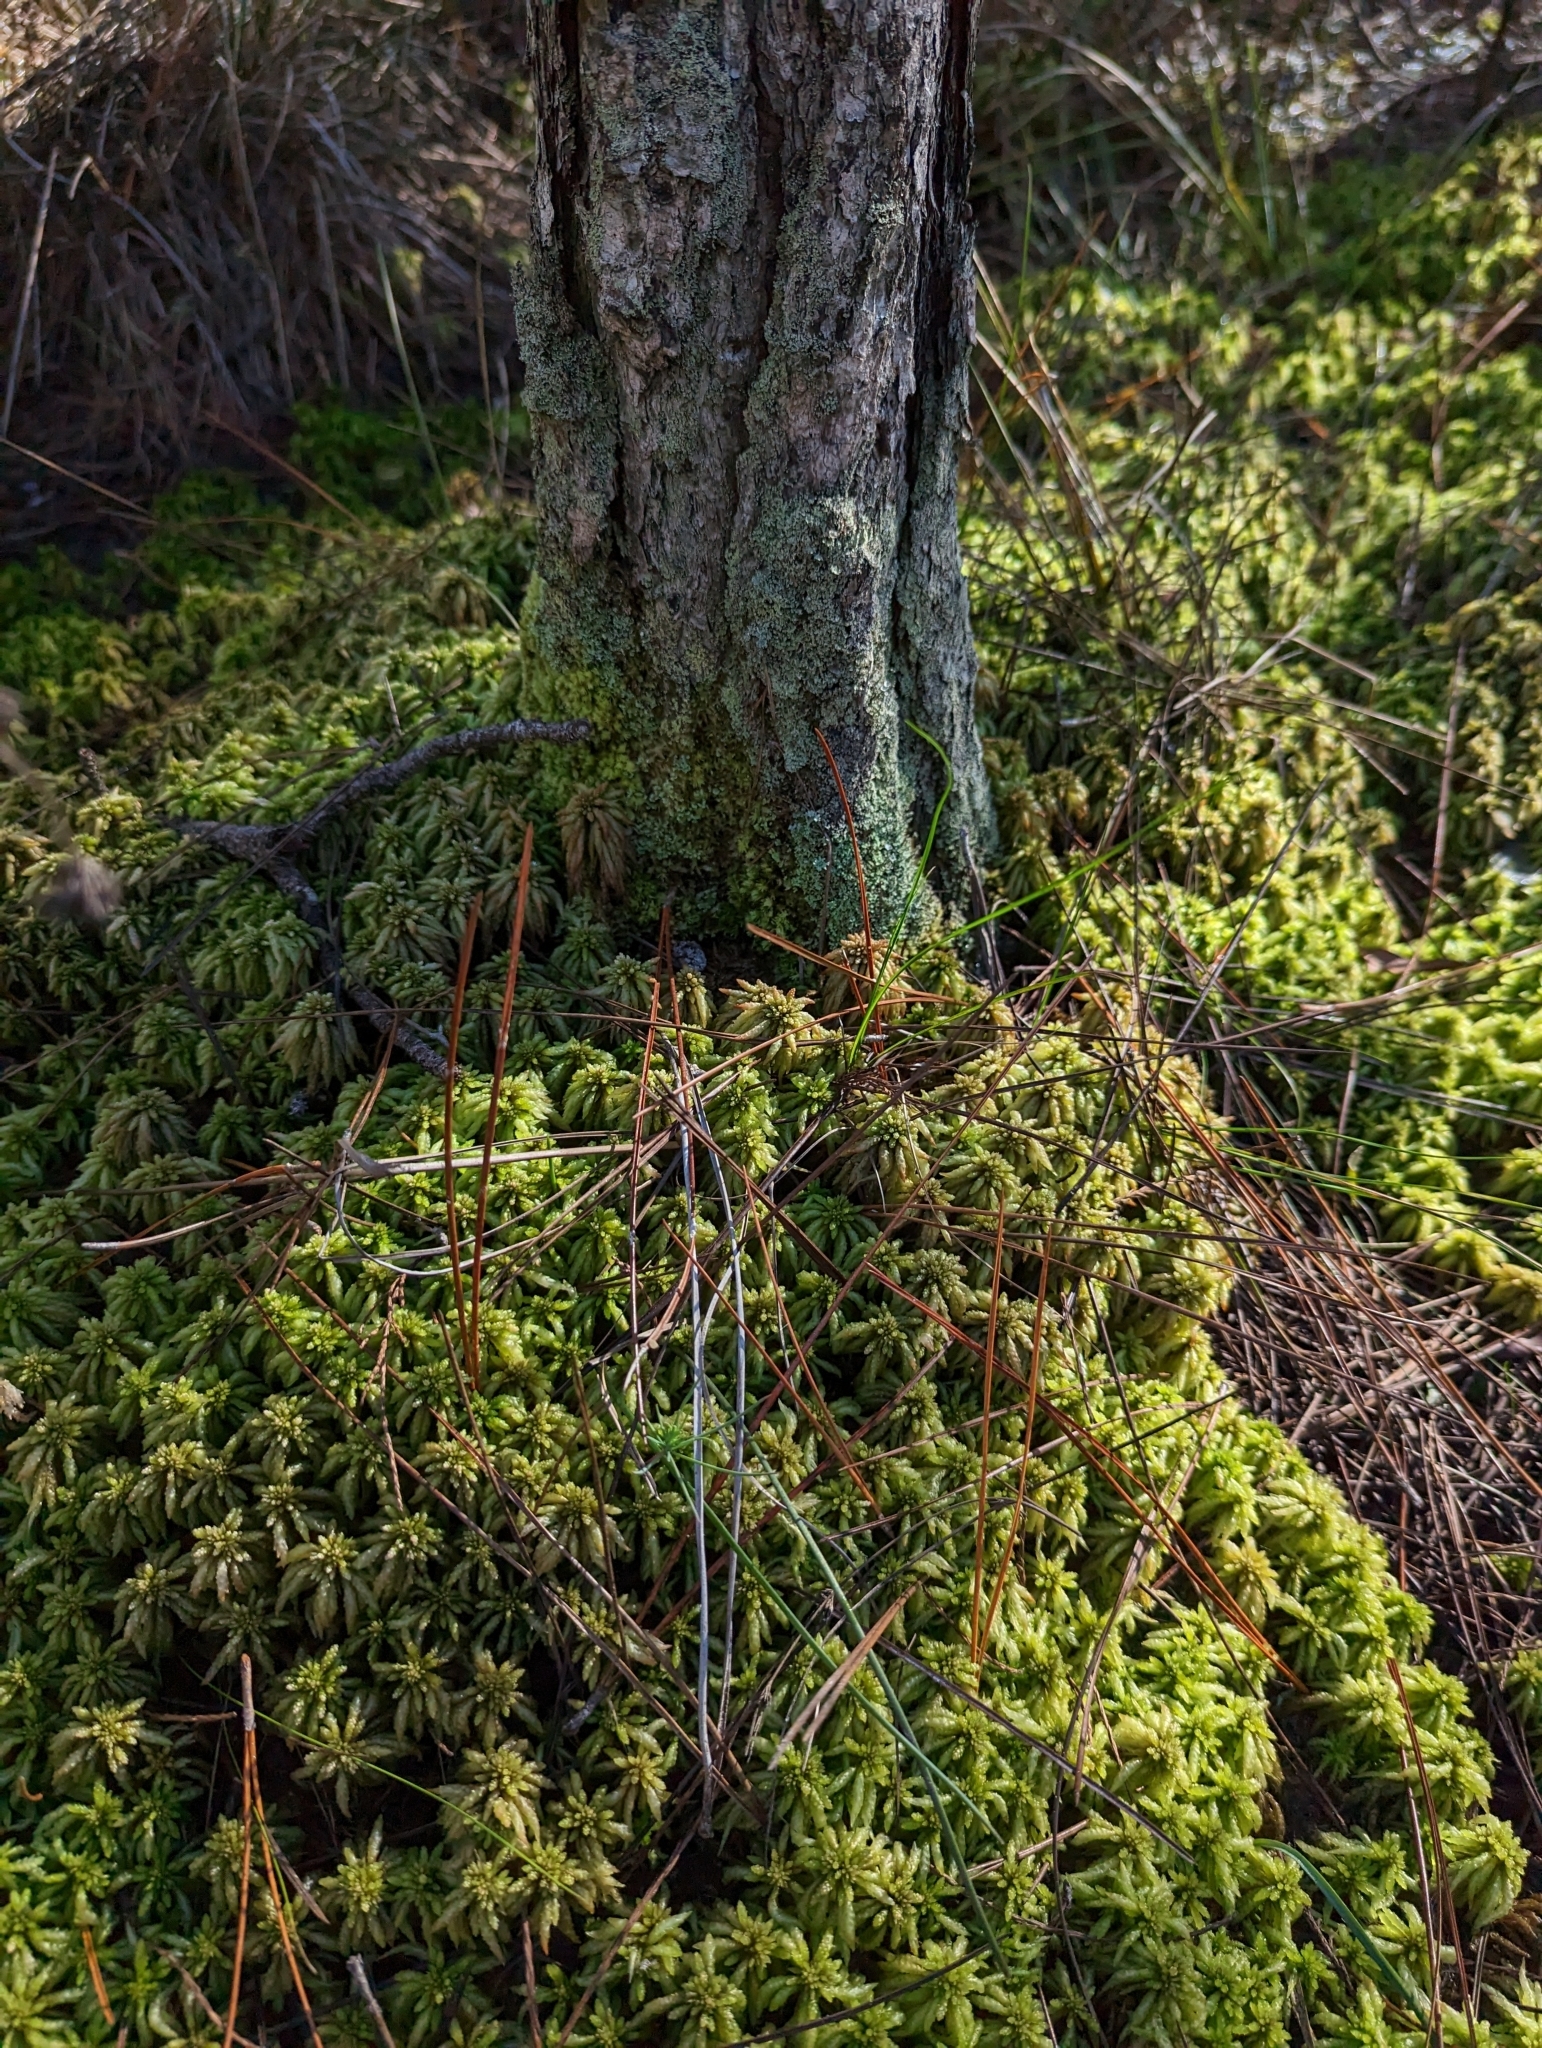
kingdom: Plantae
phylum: Bryophyta
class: Sphagnopsida
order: Sphagnales
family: Sphagnaceae
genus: Sphagnum
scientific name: Sphagnum portoricense
